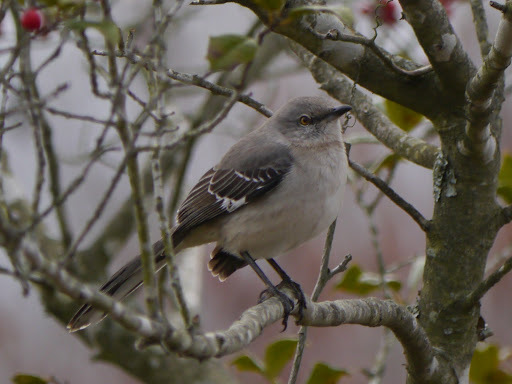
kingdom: Animalia
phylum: Chordata
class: Aves
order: Passeriformes
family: Mimidae
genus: Mimus
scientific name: Mimus polyglottos
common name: Northern mockingbird
